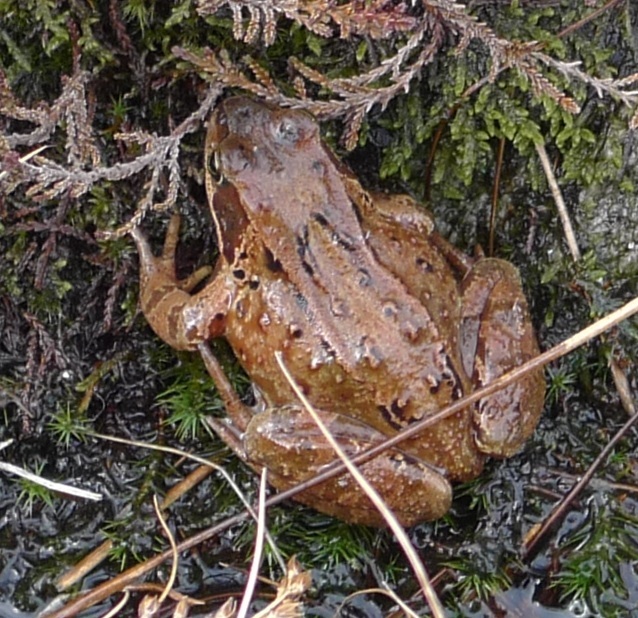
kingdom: Animalia
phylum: Chordata
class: Amphibia
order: Anura
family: Ranidae
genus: Rana
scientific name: Rana temporaria
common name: Common frog
